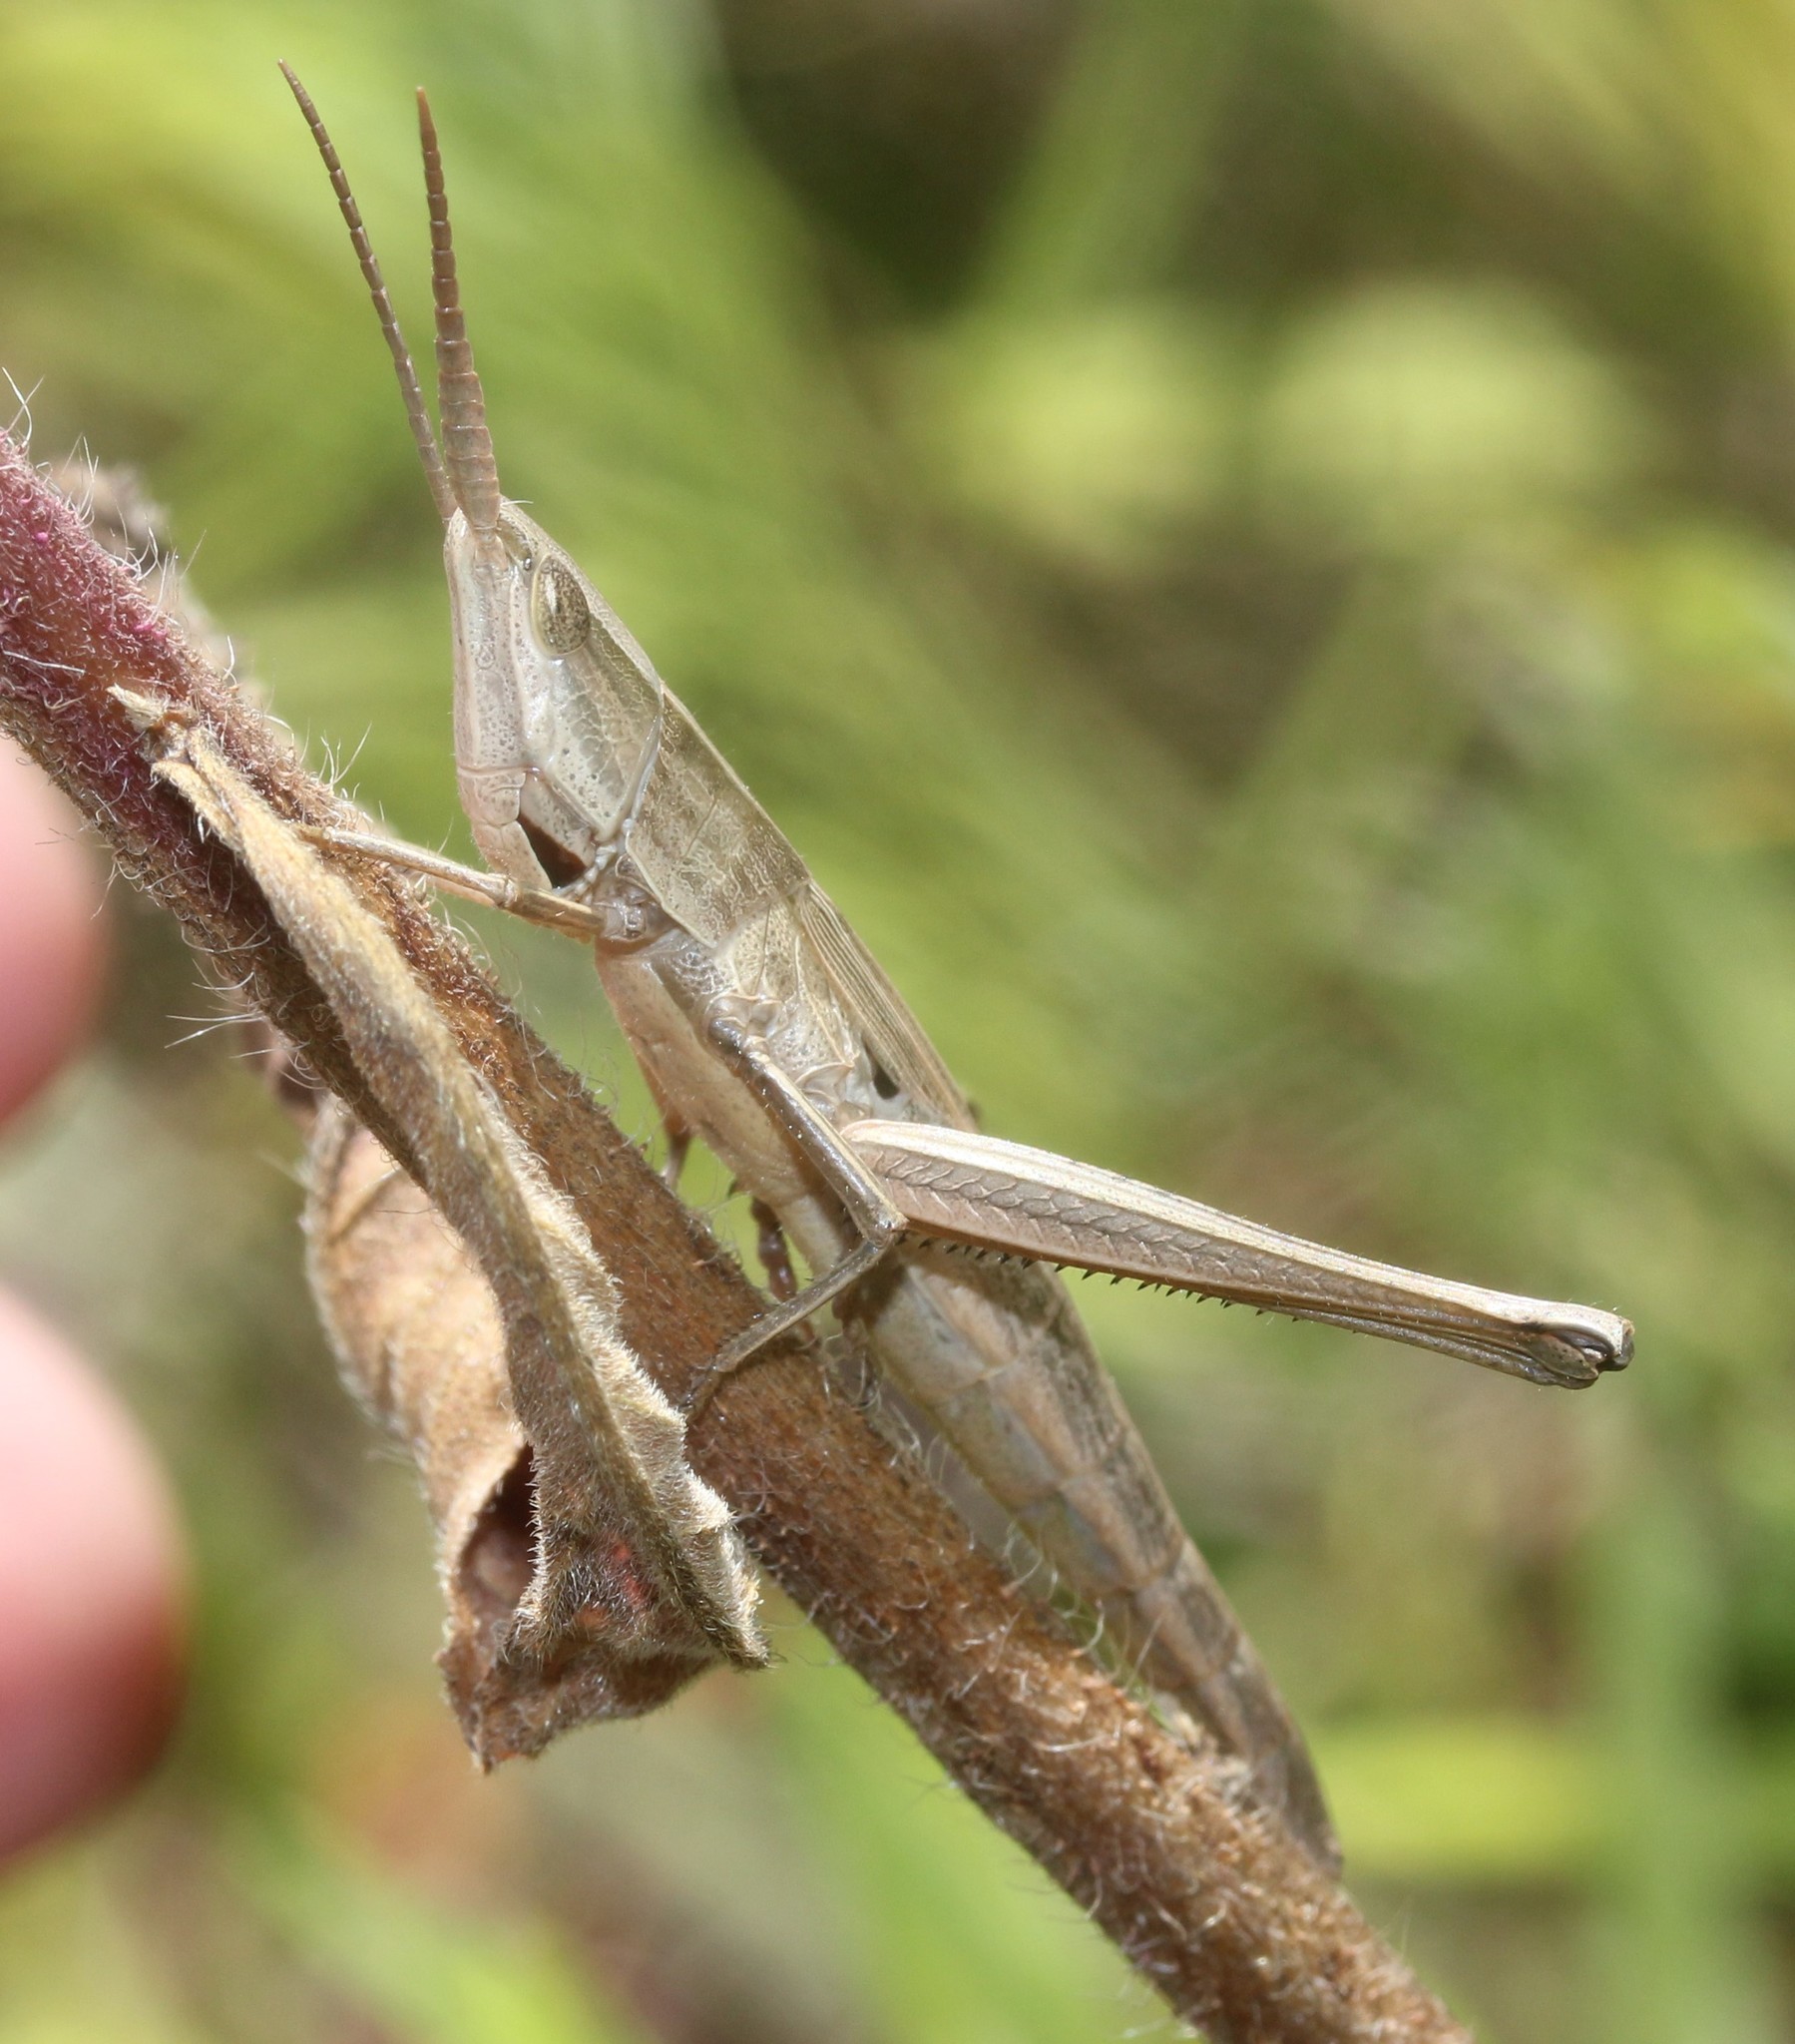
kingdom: Animalia
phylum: Arthropoda
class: Insecta
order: Orthoptera
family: Acrididae
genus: Pseudopomala
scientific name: Pseudopomala brachyptera
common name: Bunchgrass grasshopper
